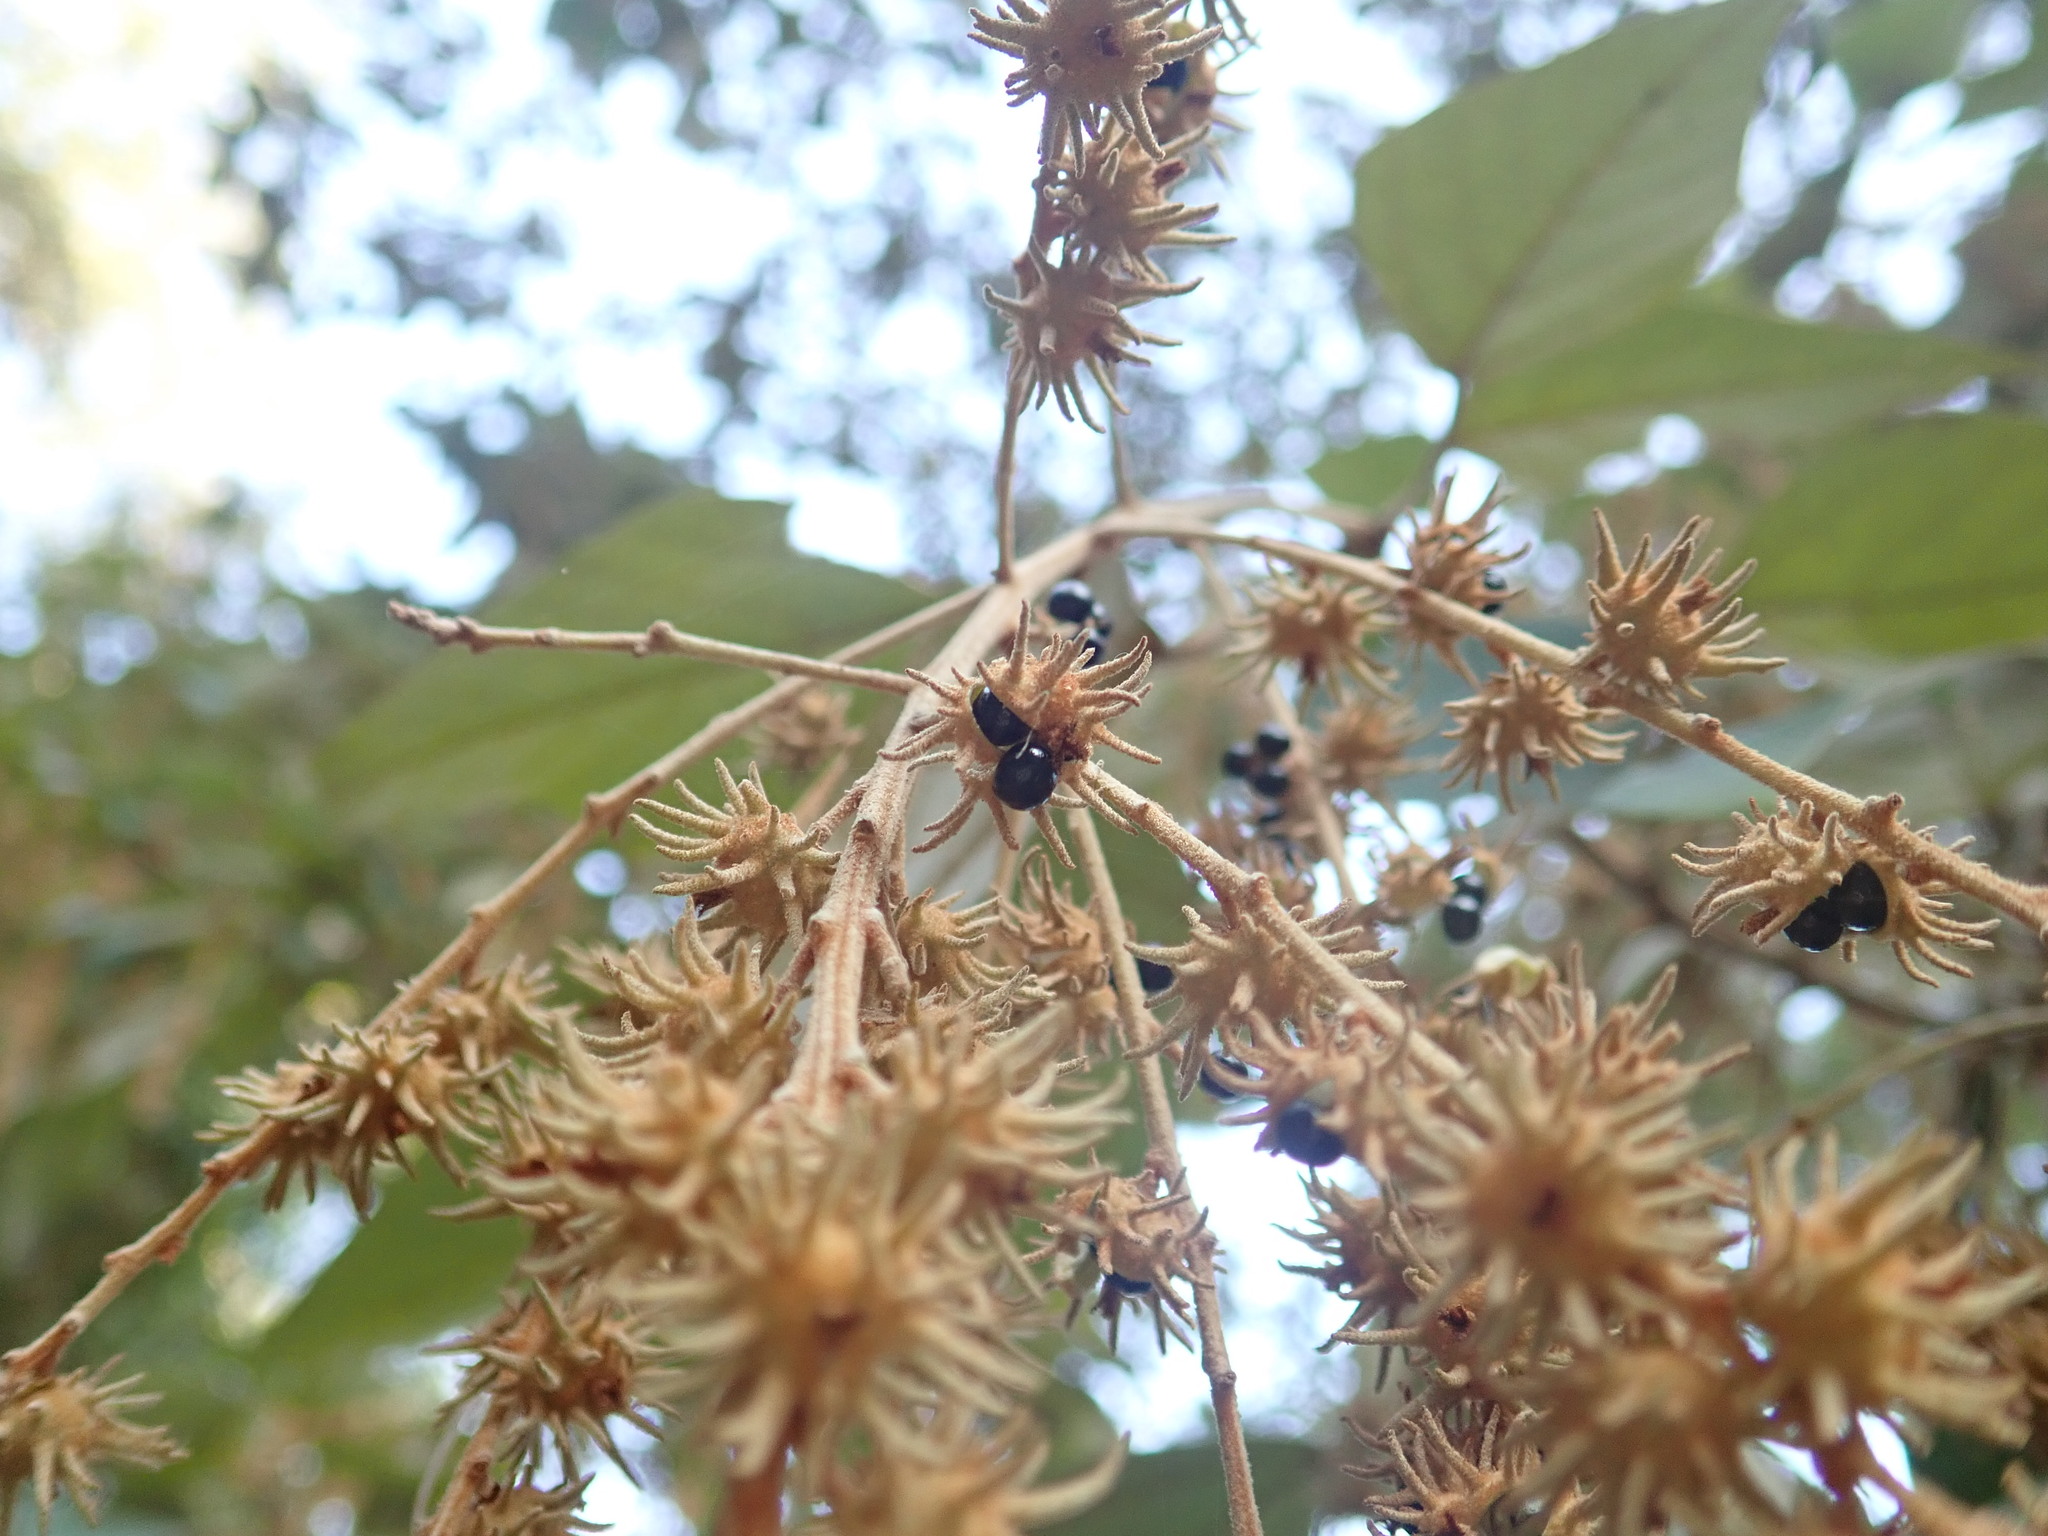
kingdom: Plantae
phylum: Tracheophyta
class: Magnoliopsida
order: Malpighiales
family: Euphorbiaceae
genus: Mallotus
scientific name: Mallotus paniculatus
